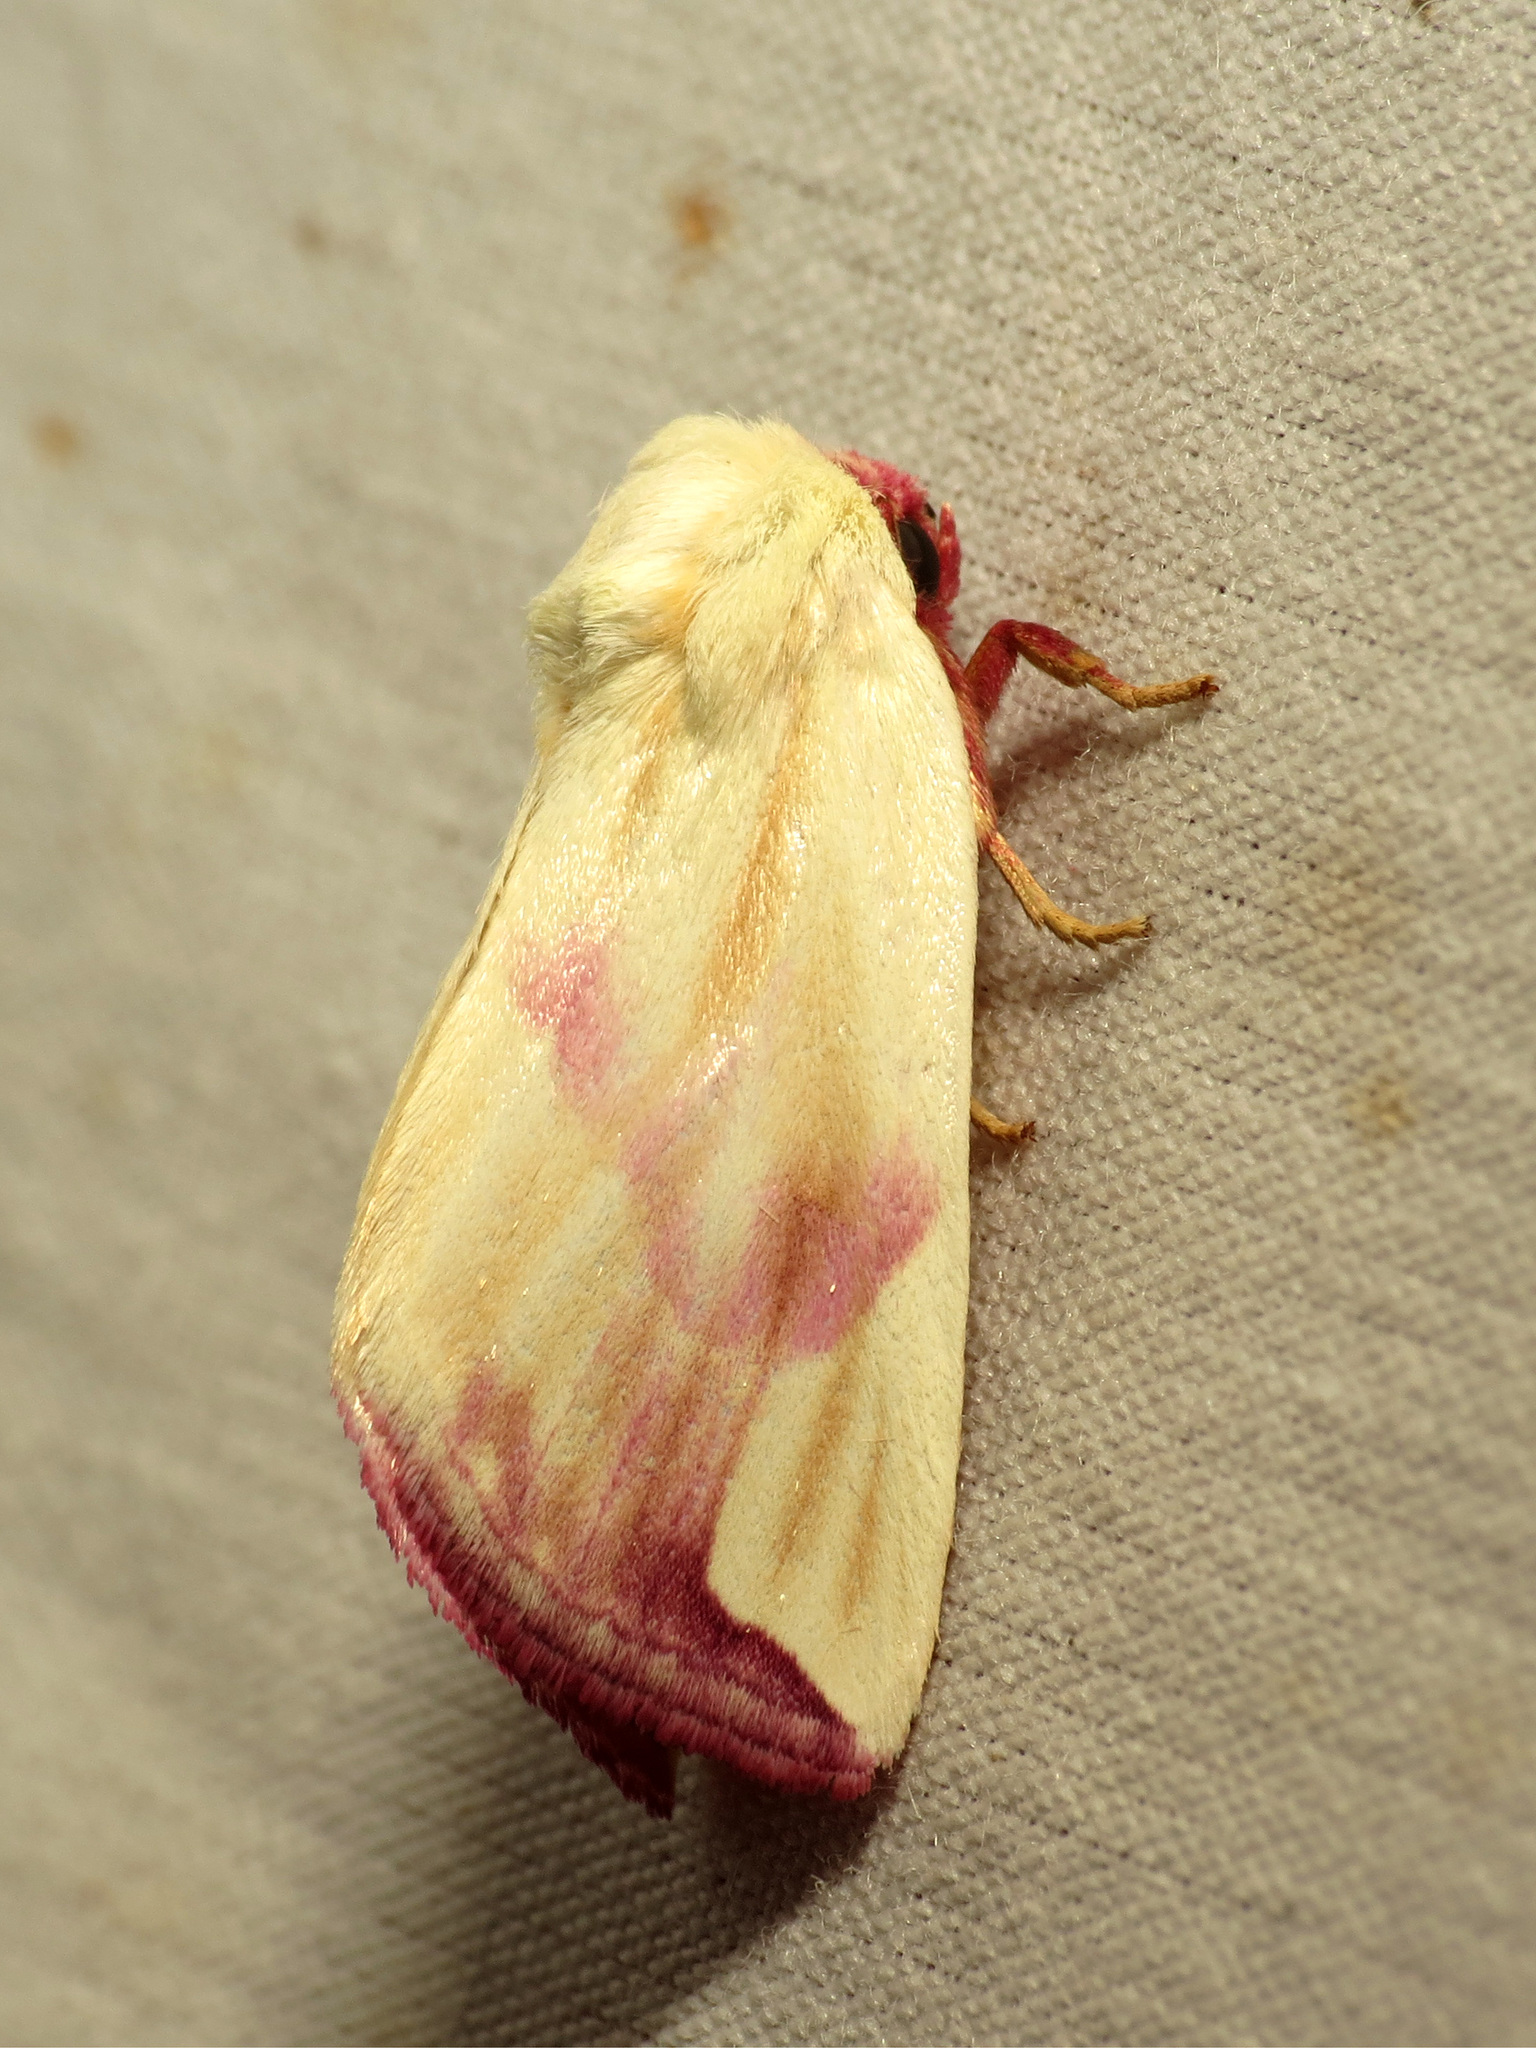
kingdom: Animalia
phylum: Arthropoda
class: Insecta
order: Lepidoptera
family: Noctuidae
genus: Thurberiphaga
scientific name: Thurberiphaga diffusa
